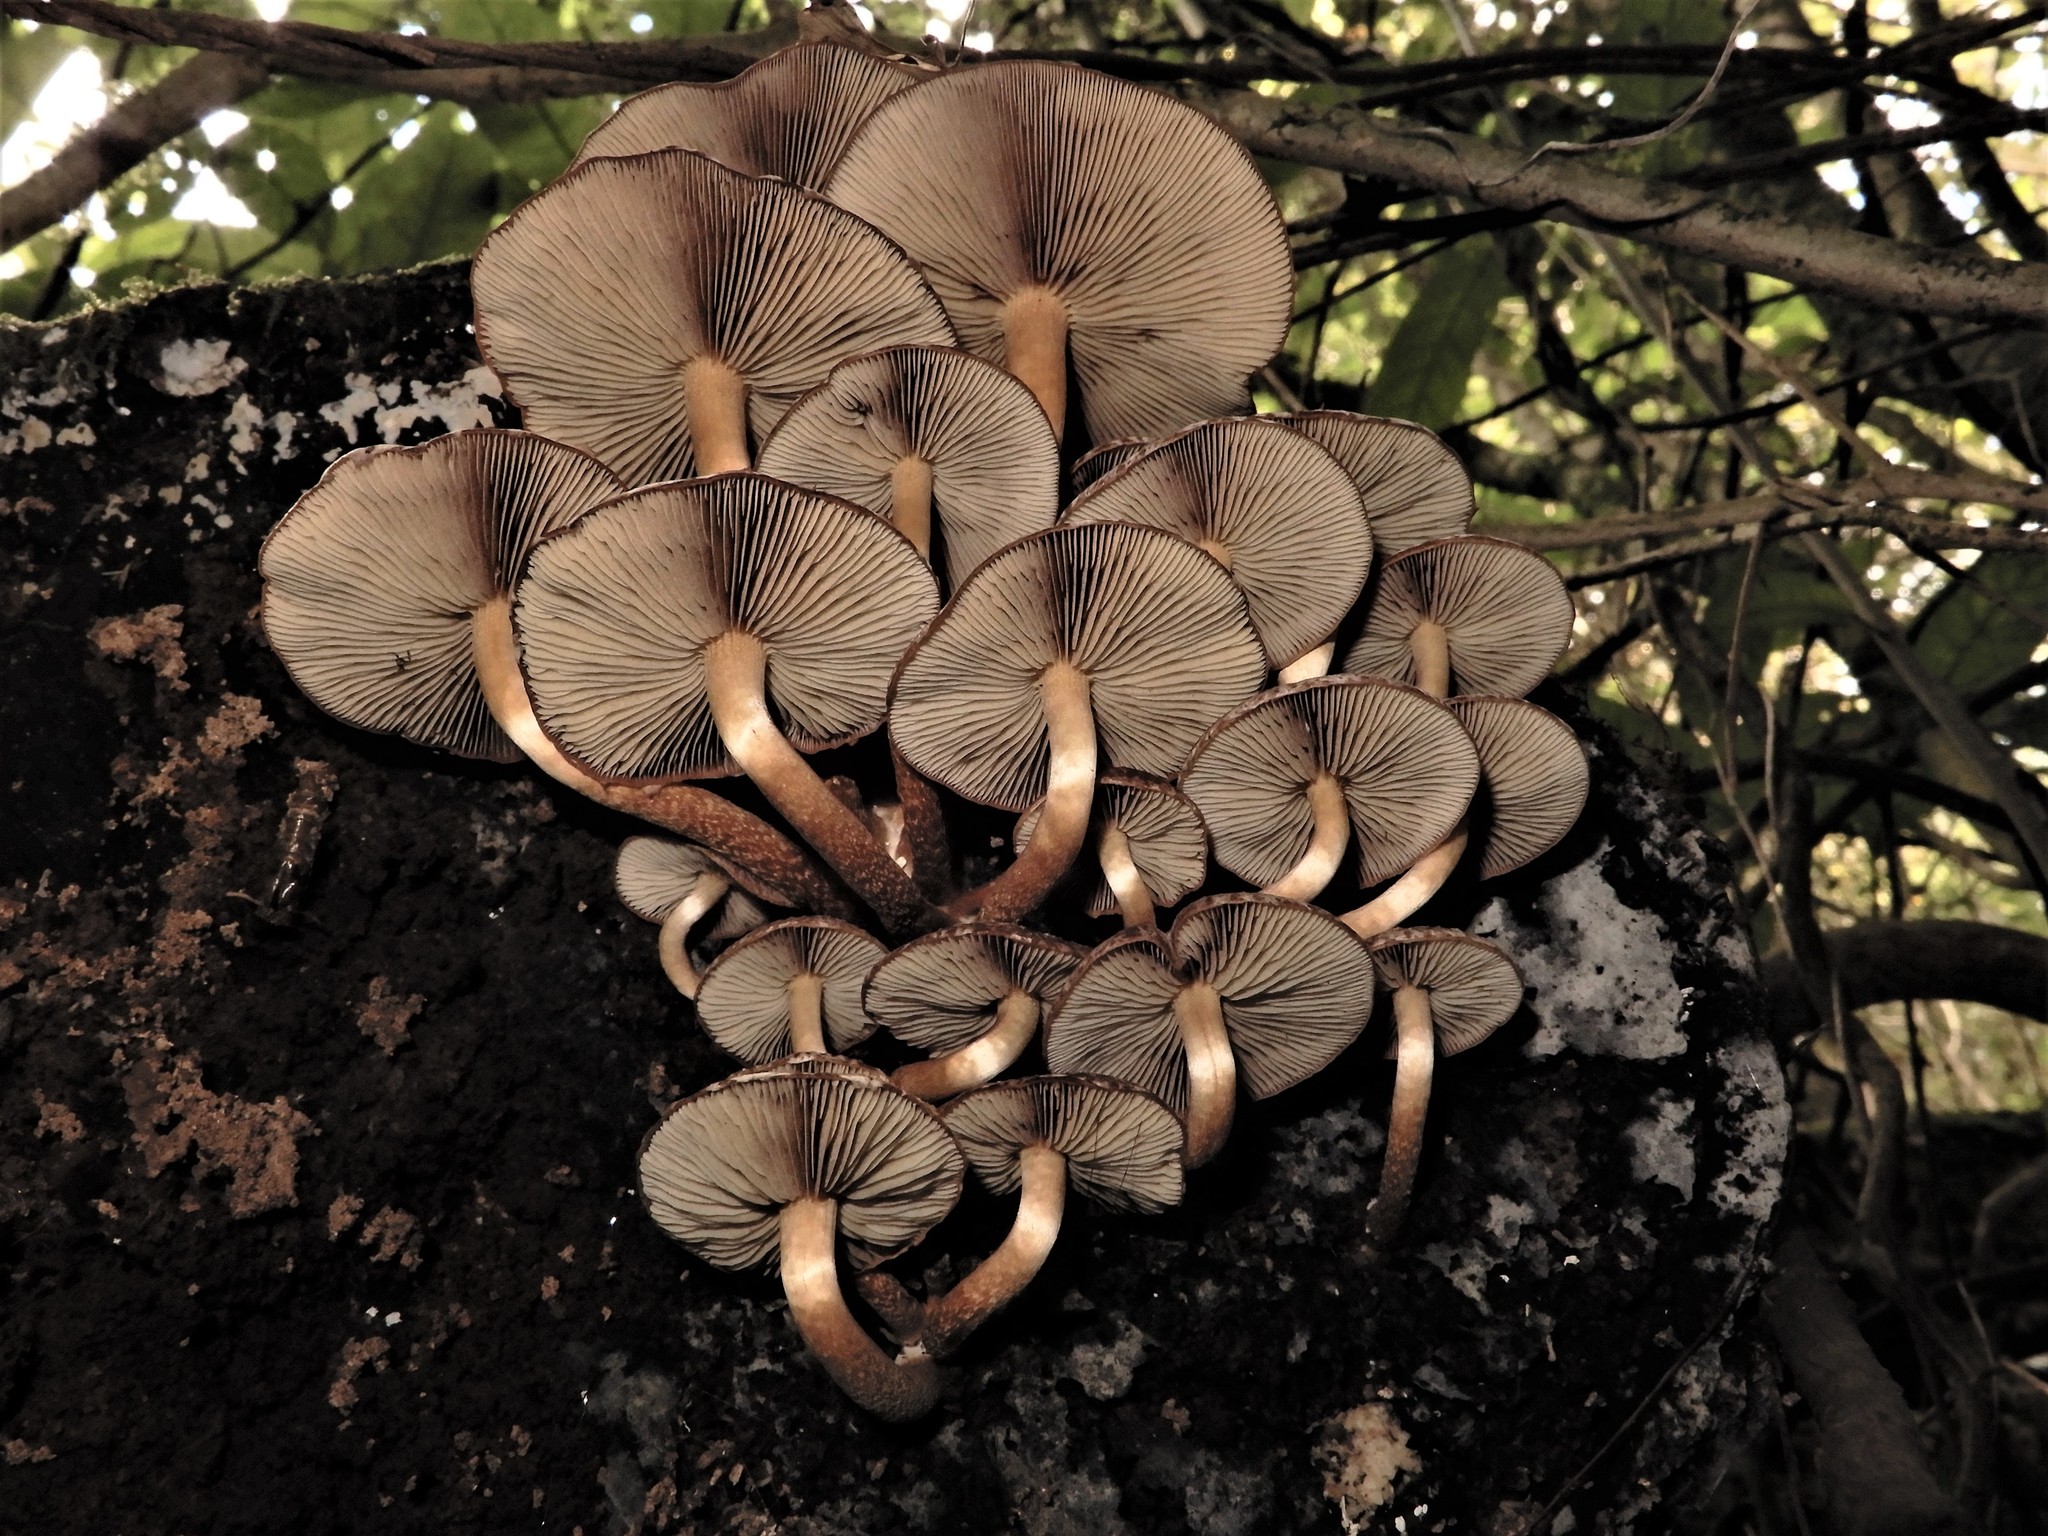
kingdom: Fungi
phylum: Basidiomycota
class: Agaricomycetes
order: Agaricales
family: Strophariaceae
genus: Hypholoma
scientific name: Hypholoma brunneum
